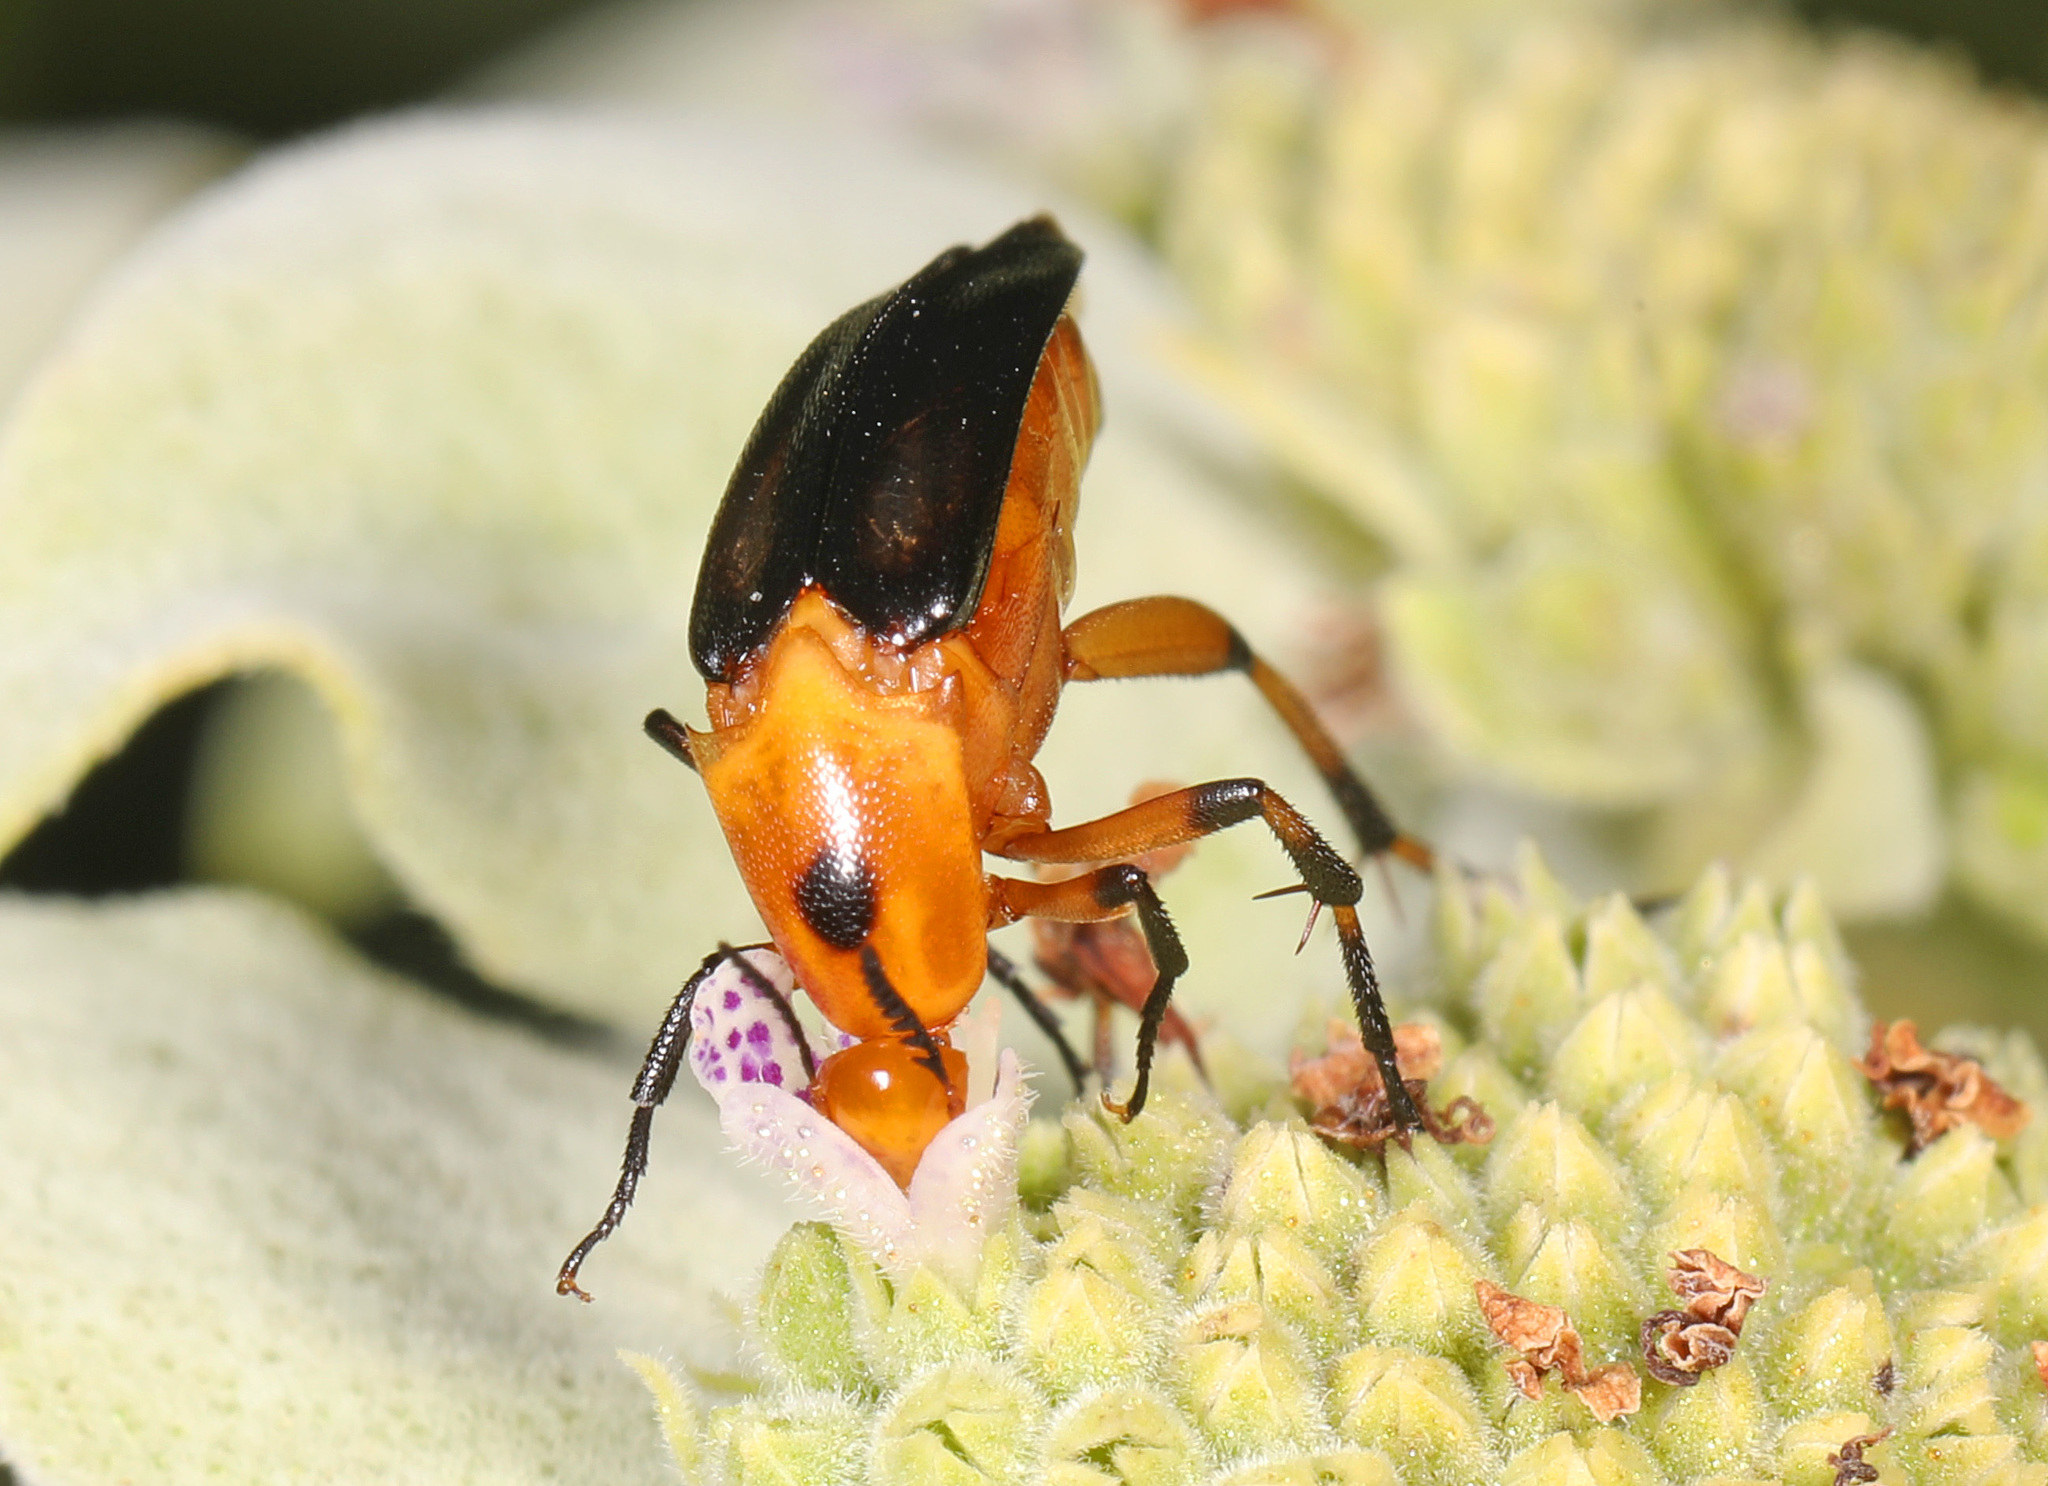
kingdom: Animalia
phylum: Arthropoda
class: Insecta
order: Coleoptera
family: Ripiphoridae
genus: Macrosiagon
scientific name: Macrosiagon limbatum
